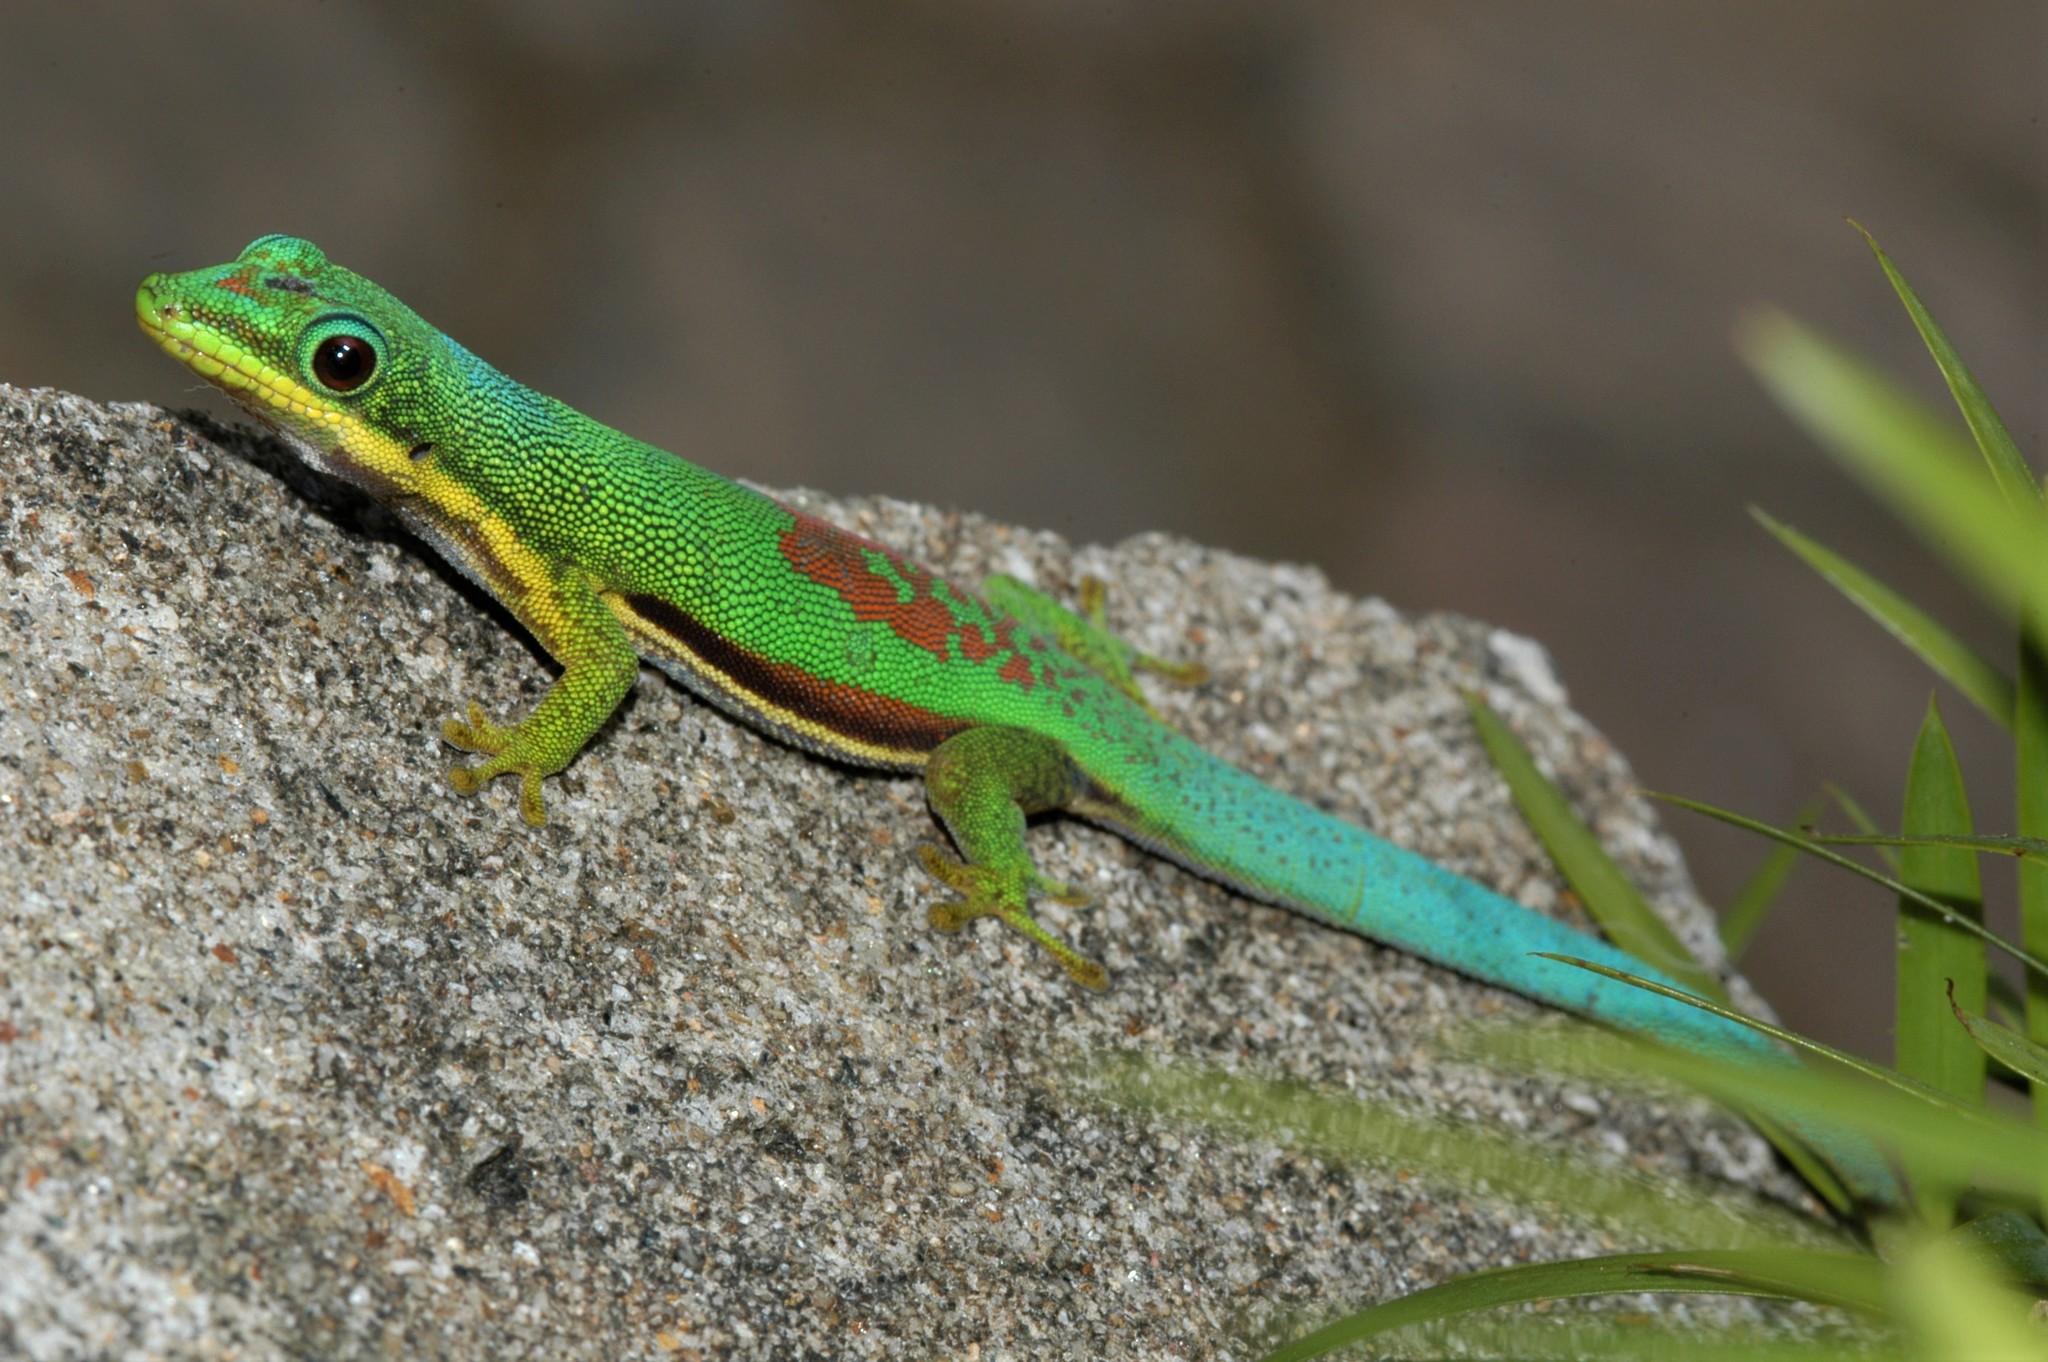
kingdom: Animalia
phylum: Chordata
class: Squamata
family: Gekkonidae
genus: Phelsuma
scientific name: Phelsuma lineata
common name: Lined day gecko
